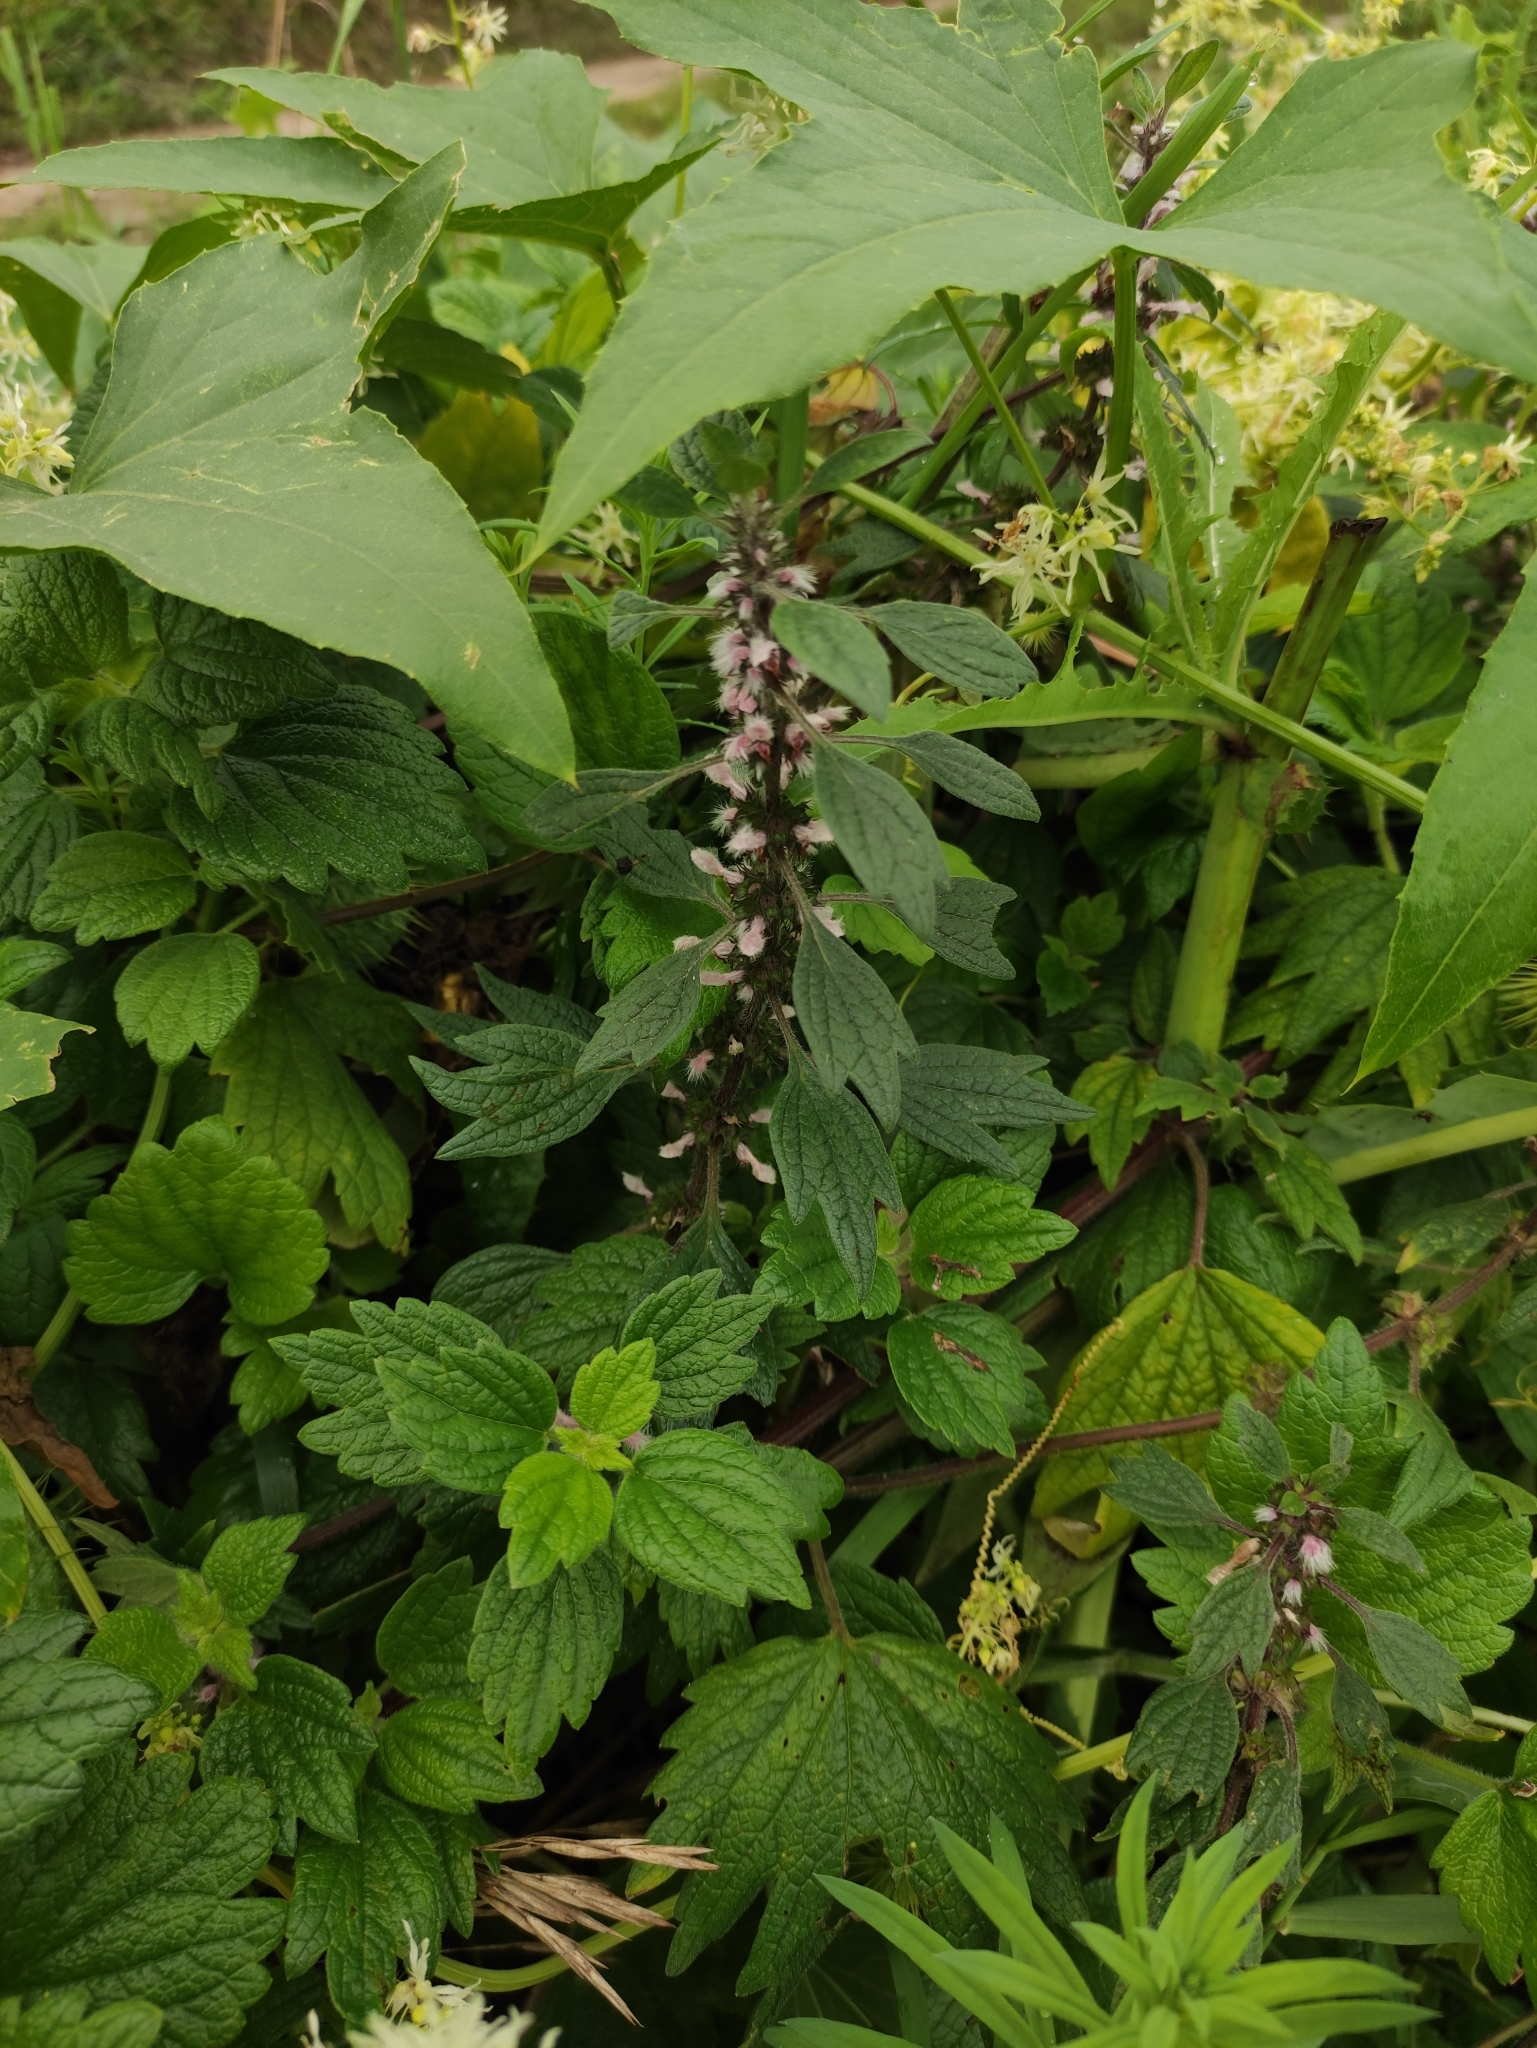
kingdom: Plantae
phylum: Tracheophyta
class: Magnoliopsida
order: Lamiales
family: Lamiaceae
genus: Leonurus
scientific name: Leonurus quinquelobatus
